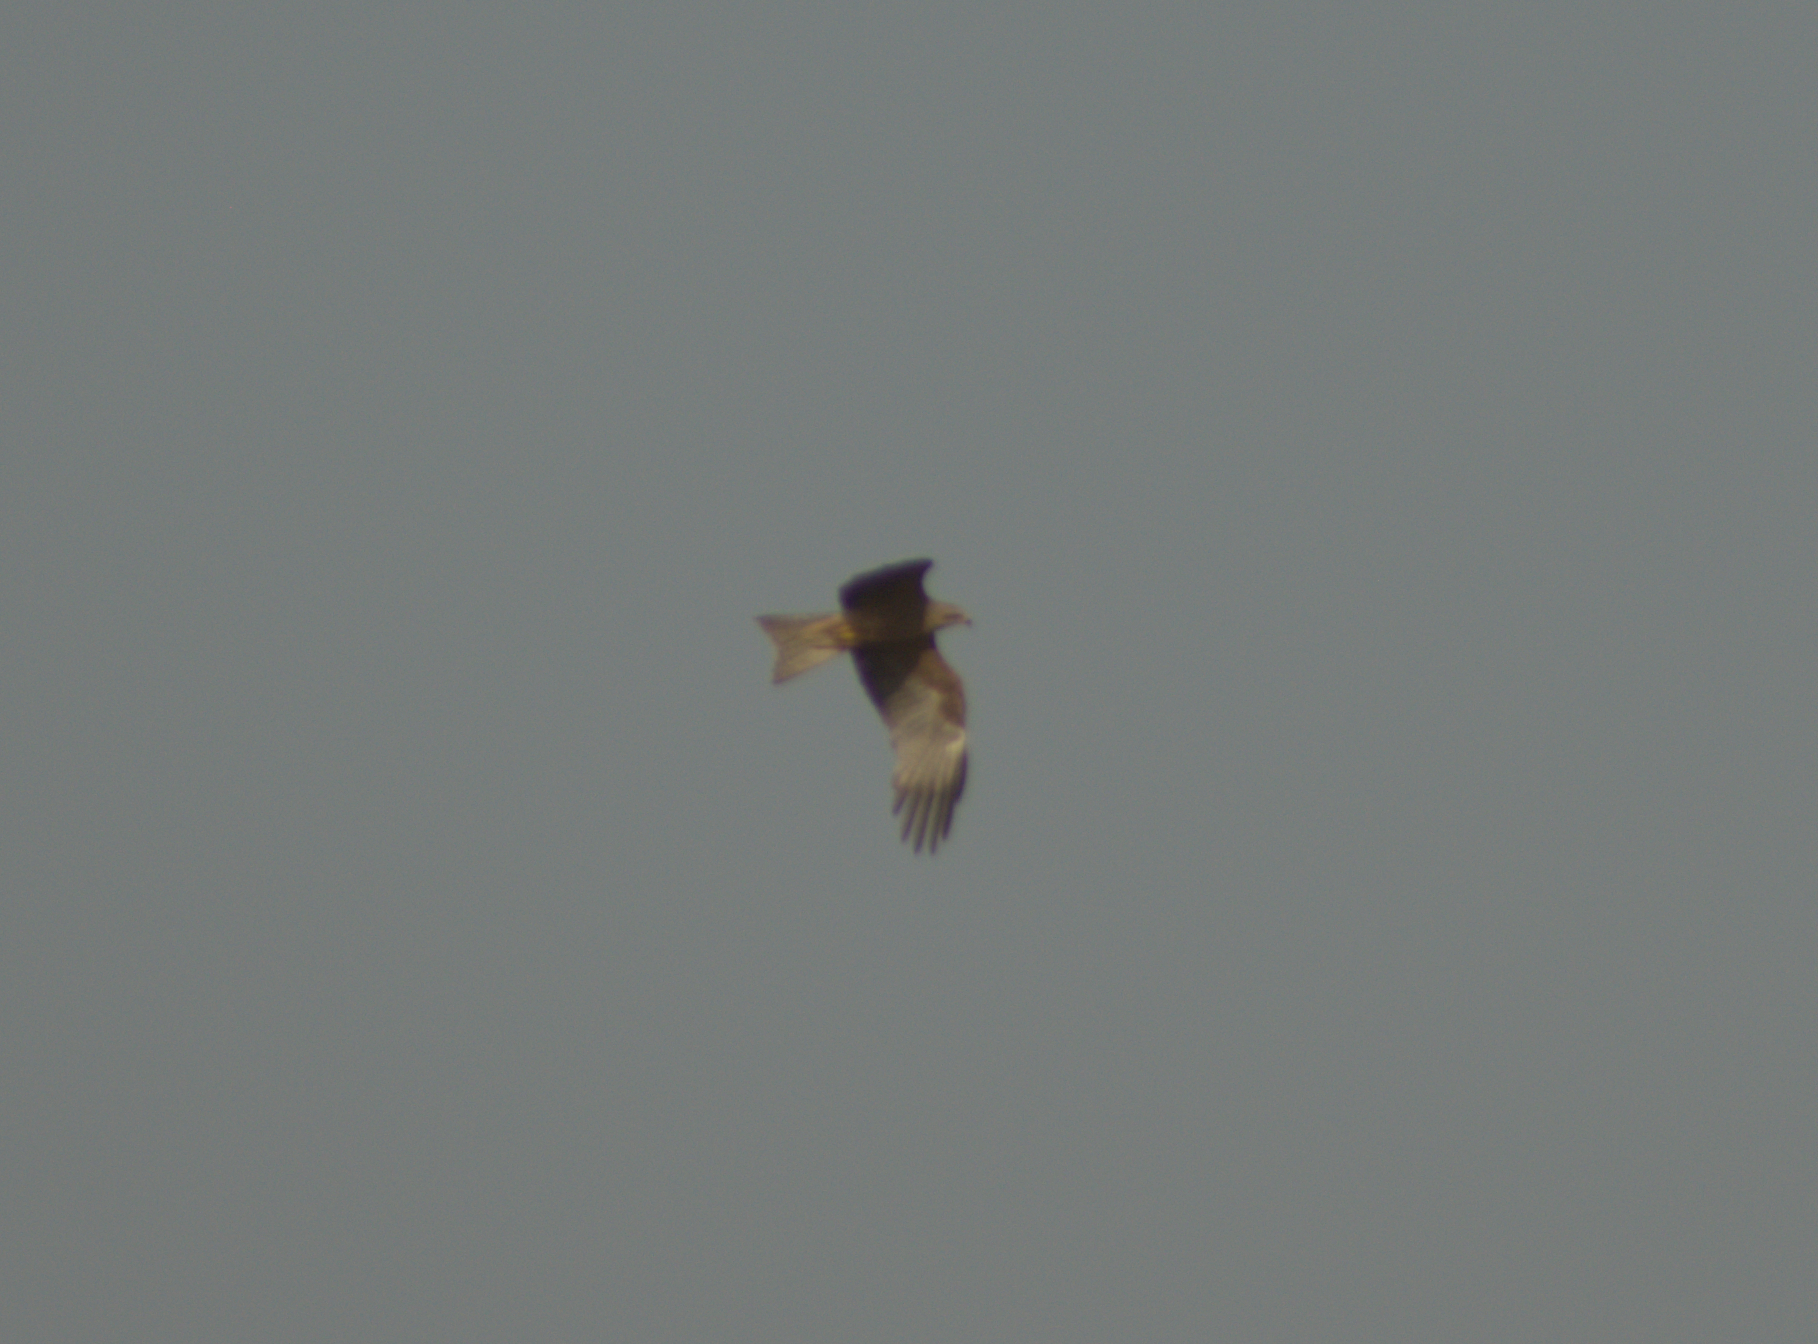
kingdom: Animalia
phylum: Chordata
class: Aves
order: Accipitriformes
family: Accipitridae
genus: Milvus
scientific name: Milvus migrans
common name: Black kite
